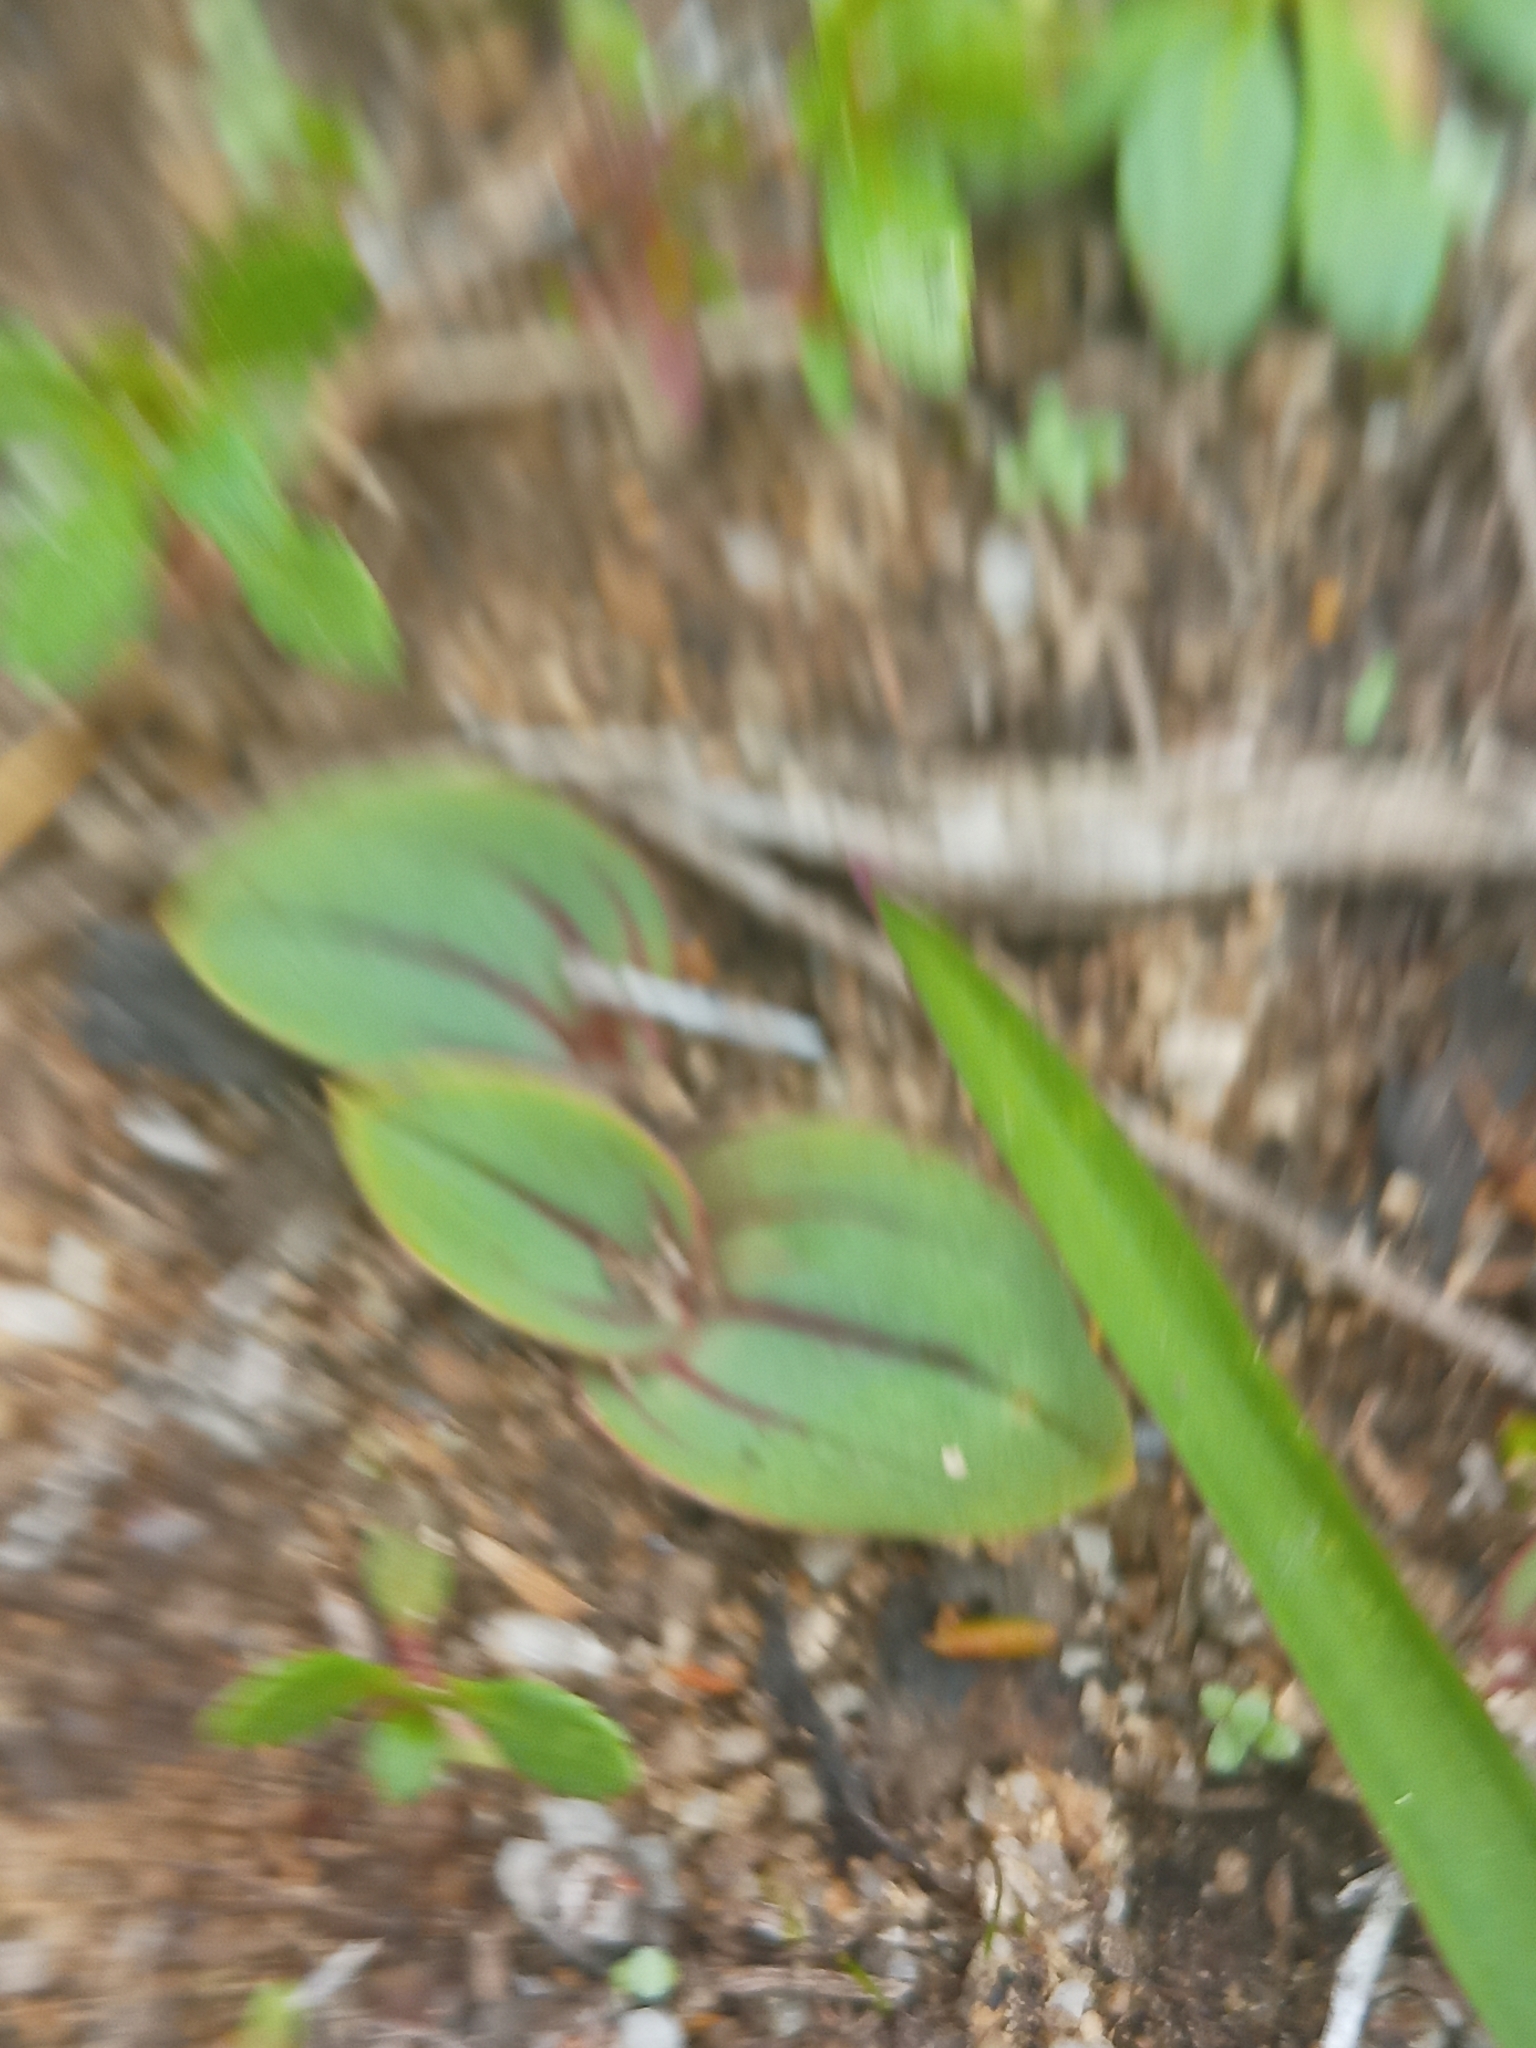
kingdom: Plantae
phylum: Tracheophyta
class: Liliopsida
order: Asparagales
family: Orchidaceae
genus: Leporella
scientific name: Leporella fimbriata
